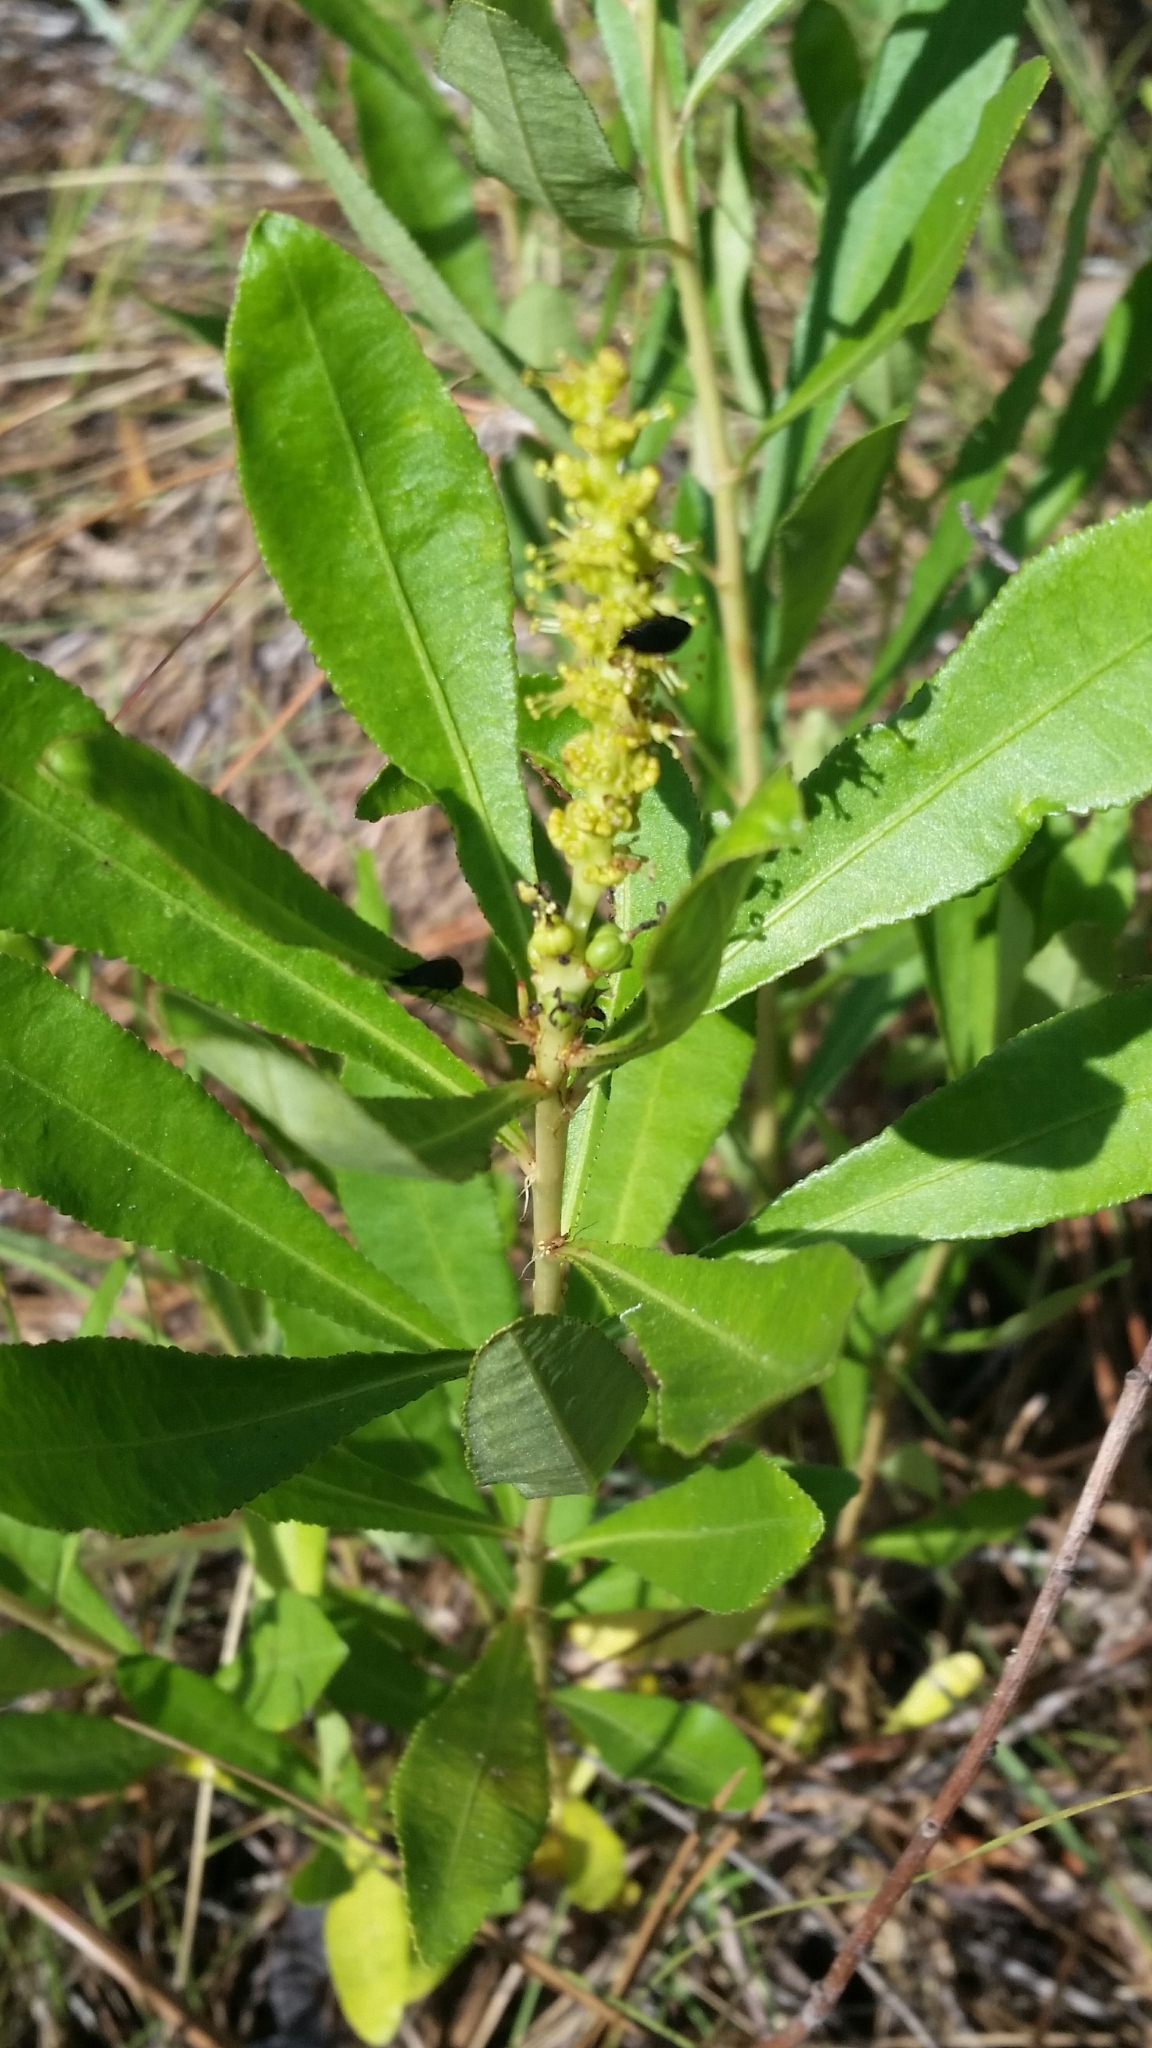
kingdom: Plantae
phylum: Tracheophyta
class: Magnoliopsida
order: Malpighiales
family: Euphorbiaceae
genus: Stillingia
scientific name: Stillingia sylvatica
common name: Queen's-delight
